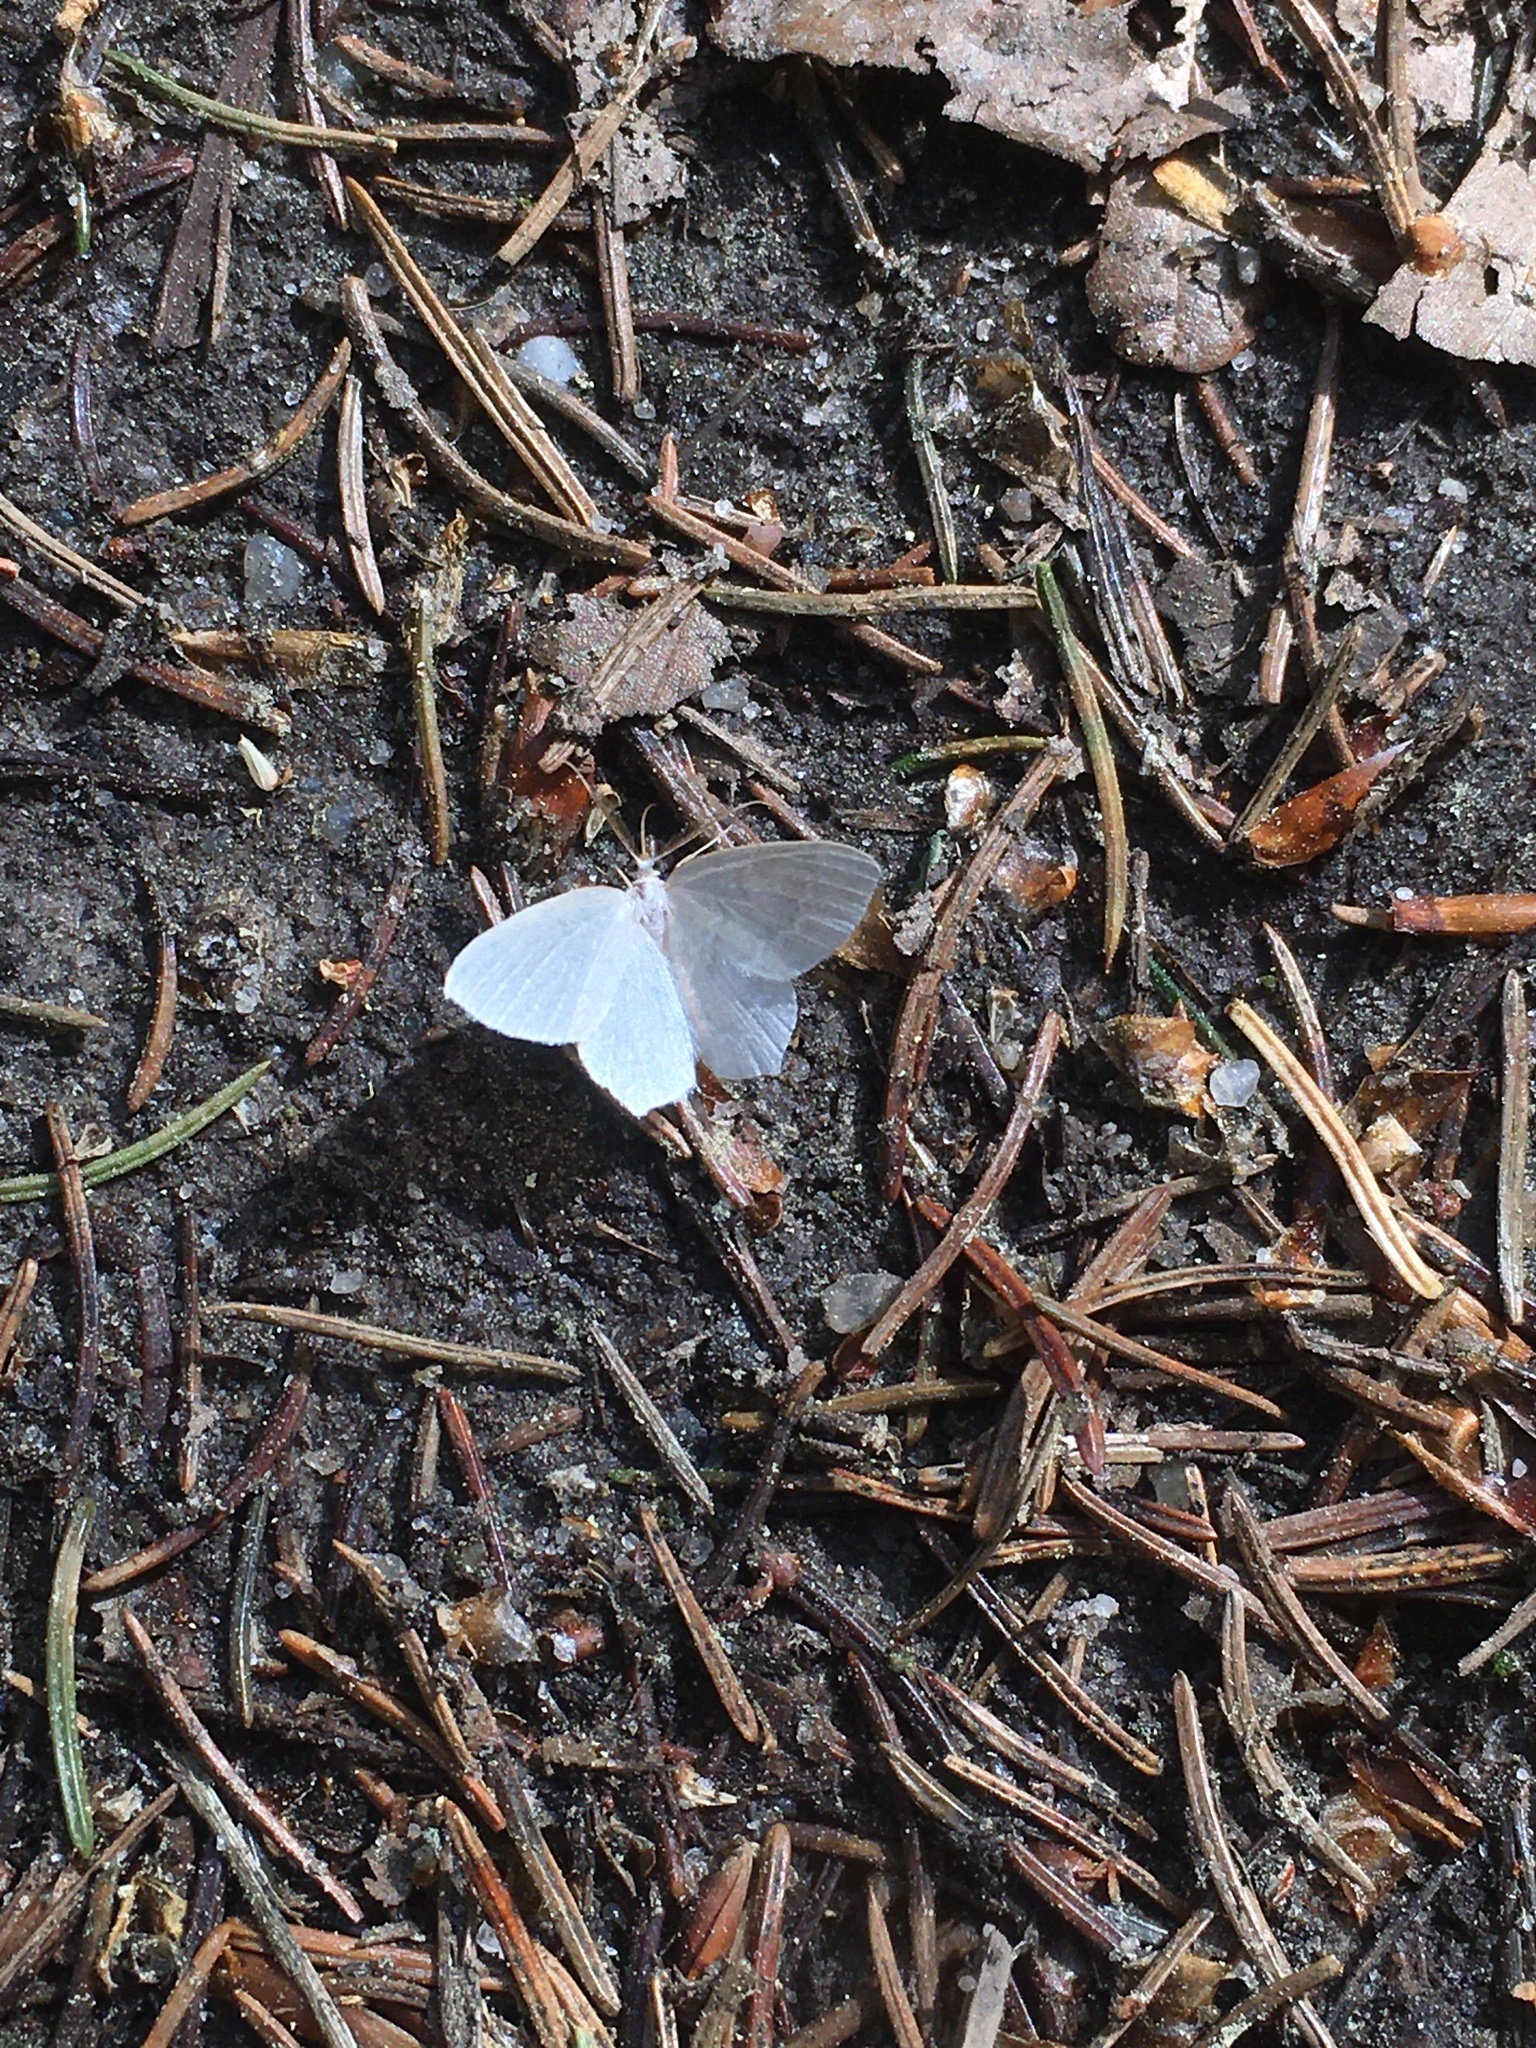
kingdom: Animalia
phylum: Arthropoda
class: Insecta
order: Lepidoptera
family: Geometridae
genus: Jodis
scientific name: Jodis putata
